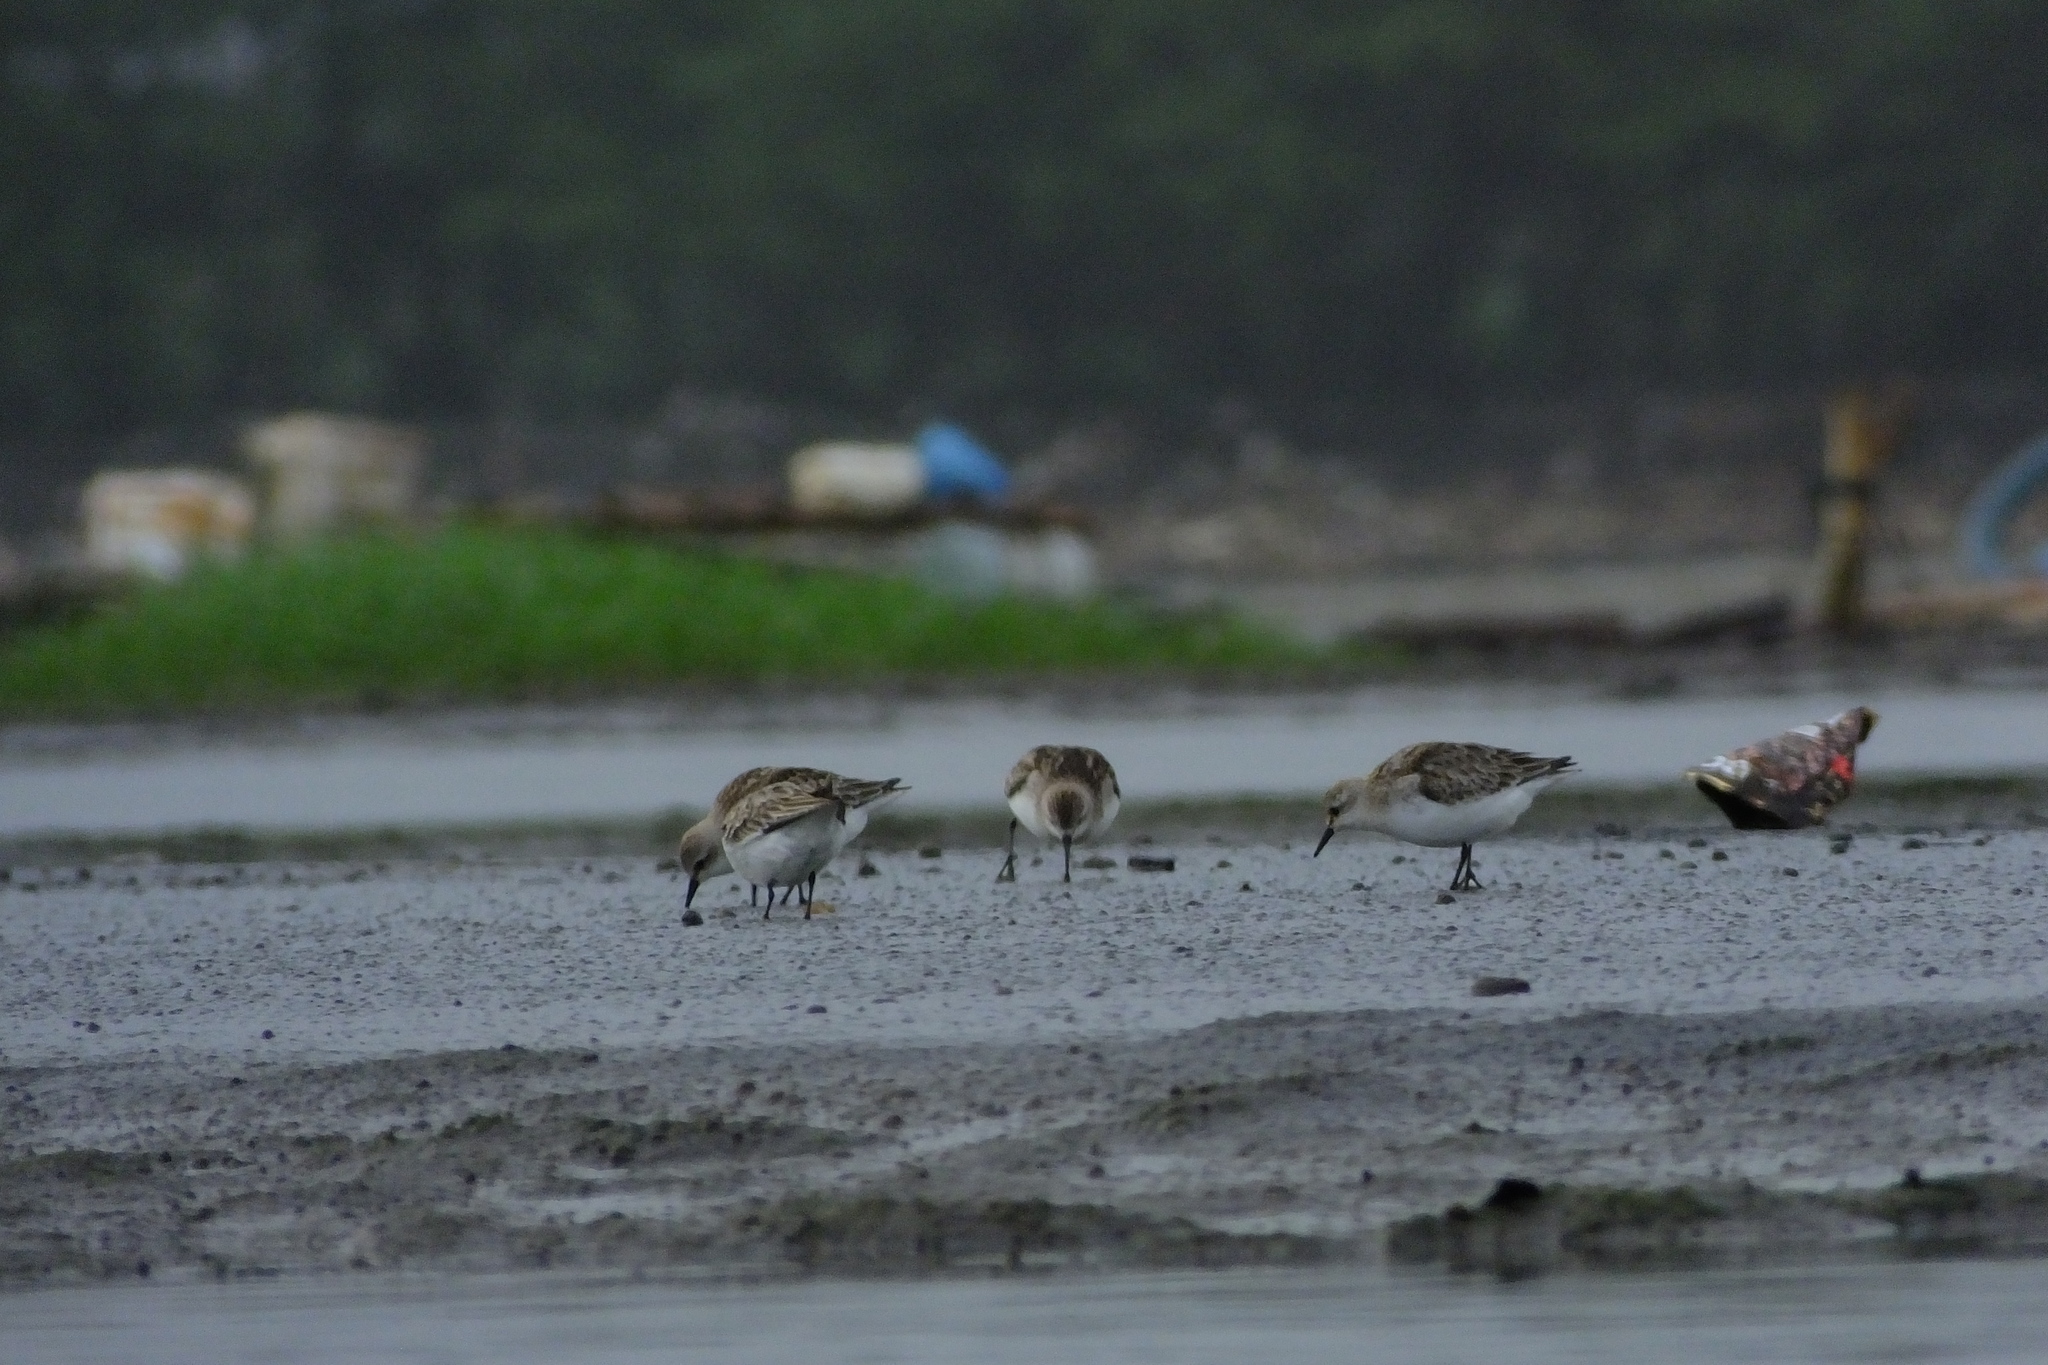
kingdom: Animalia
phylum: Chordata
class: Aves
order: Charadriiformes
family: Scolopacidae
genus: Calidris
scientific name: Calidris ruficollis
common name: Red-necked stint
